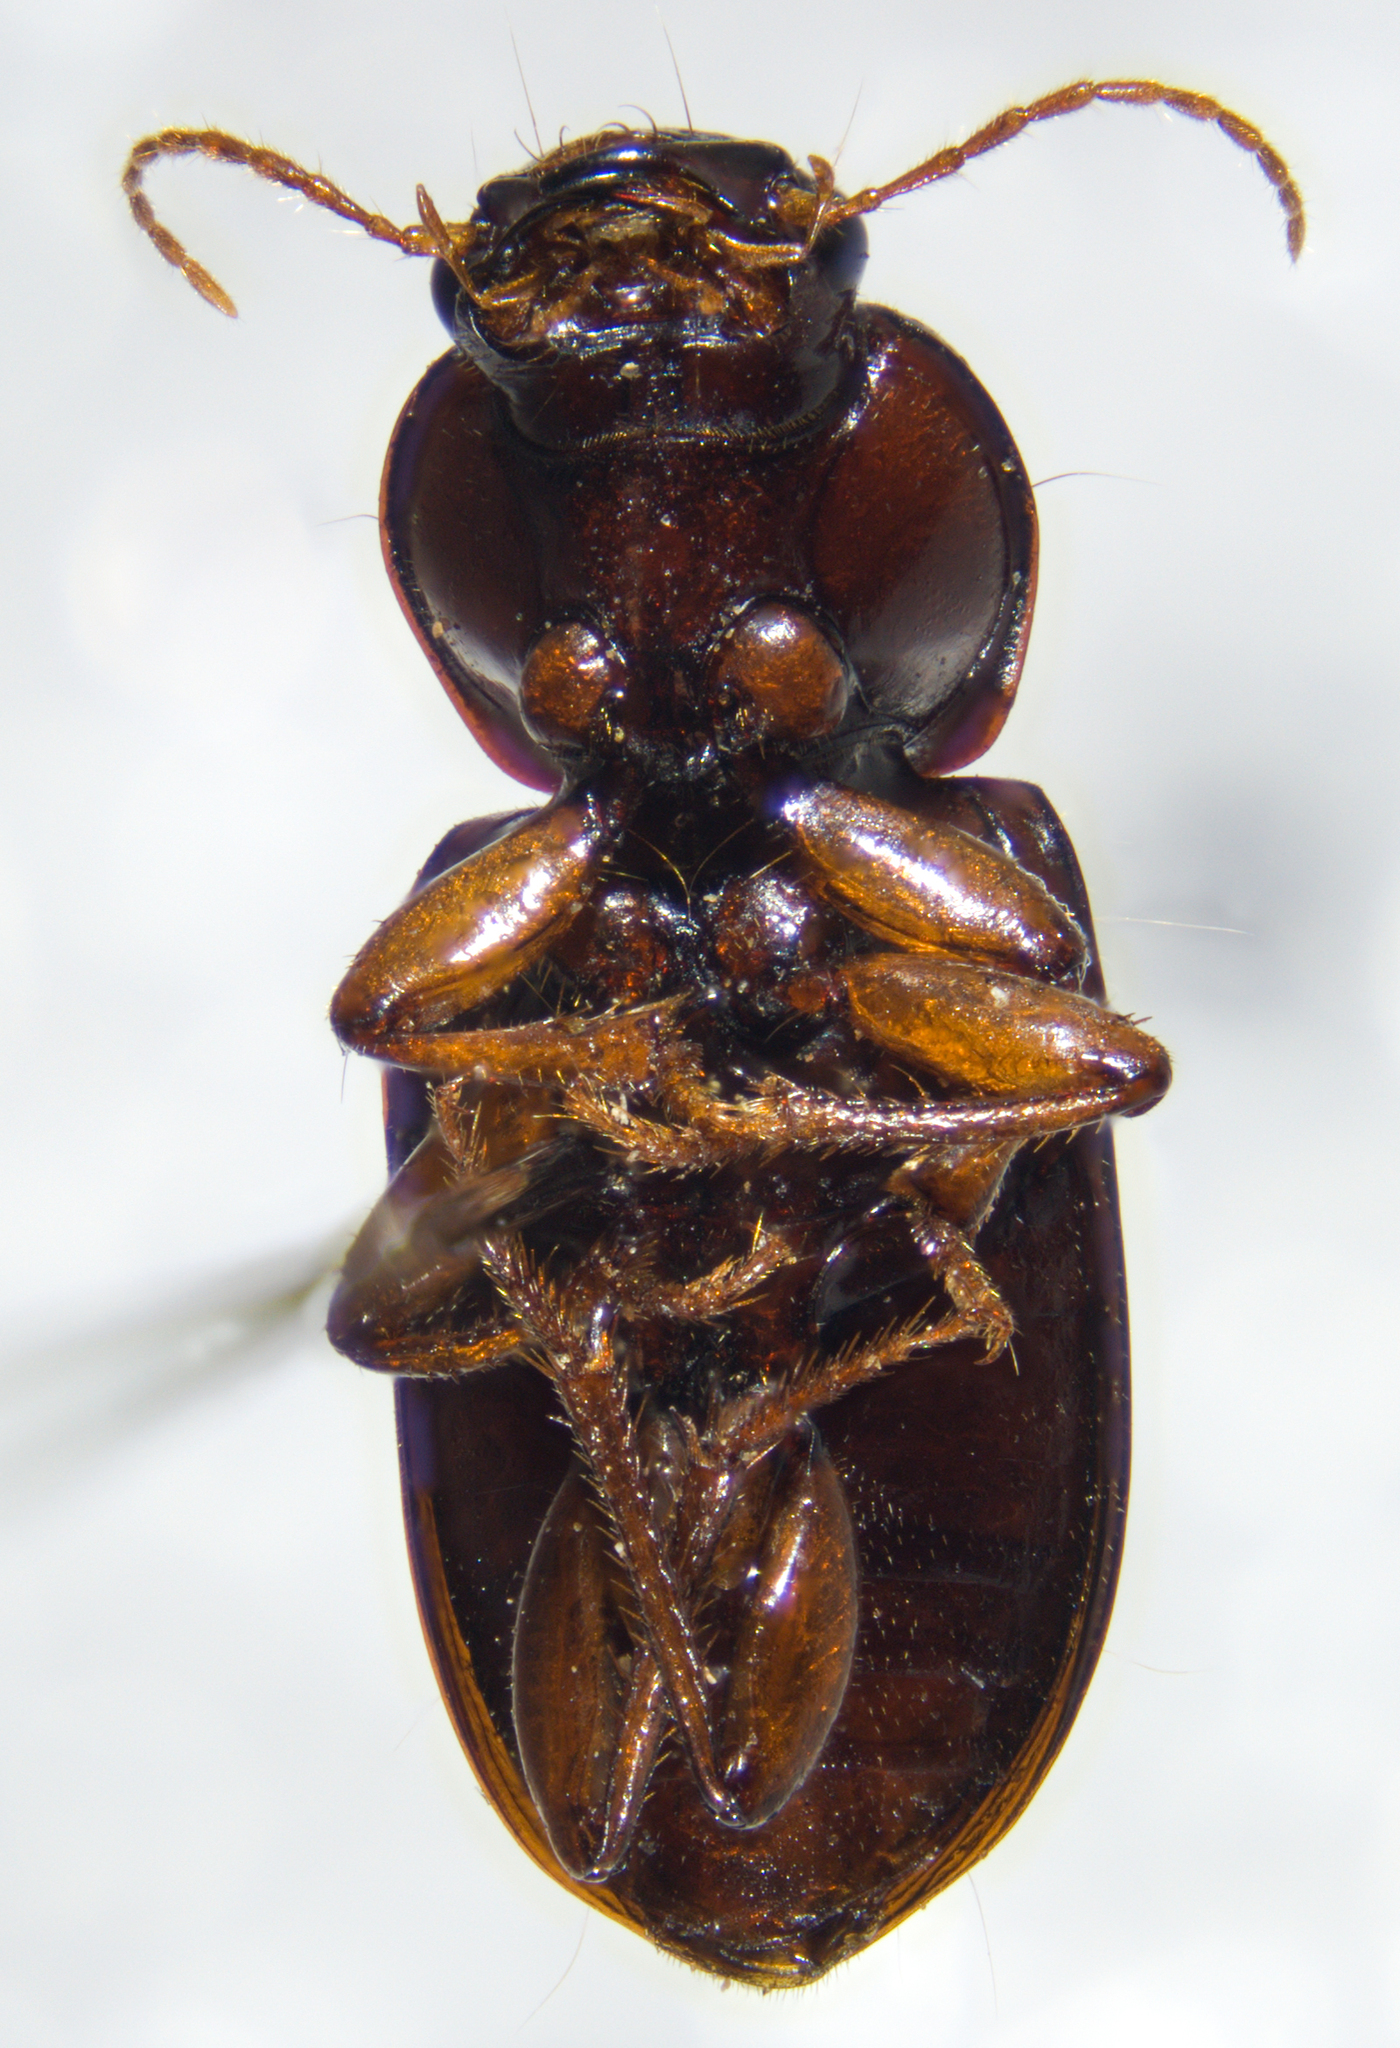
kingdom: Animalia
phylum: Arthropoda
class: Insecta
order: Coleoptera
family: Carabidae
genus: Discoderus
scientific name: Discoderus obsidianus
